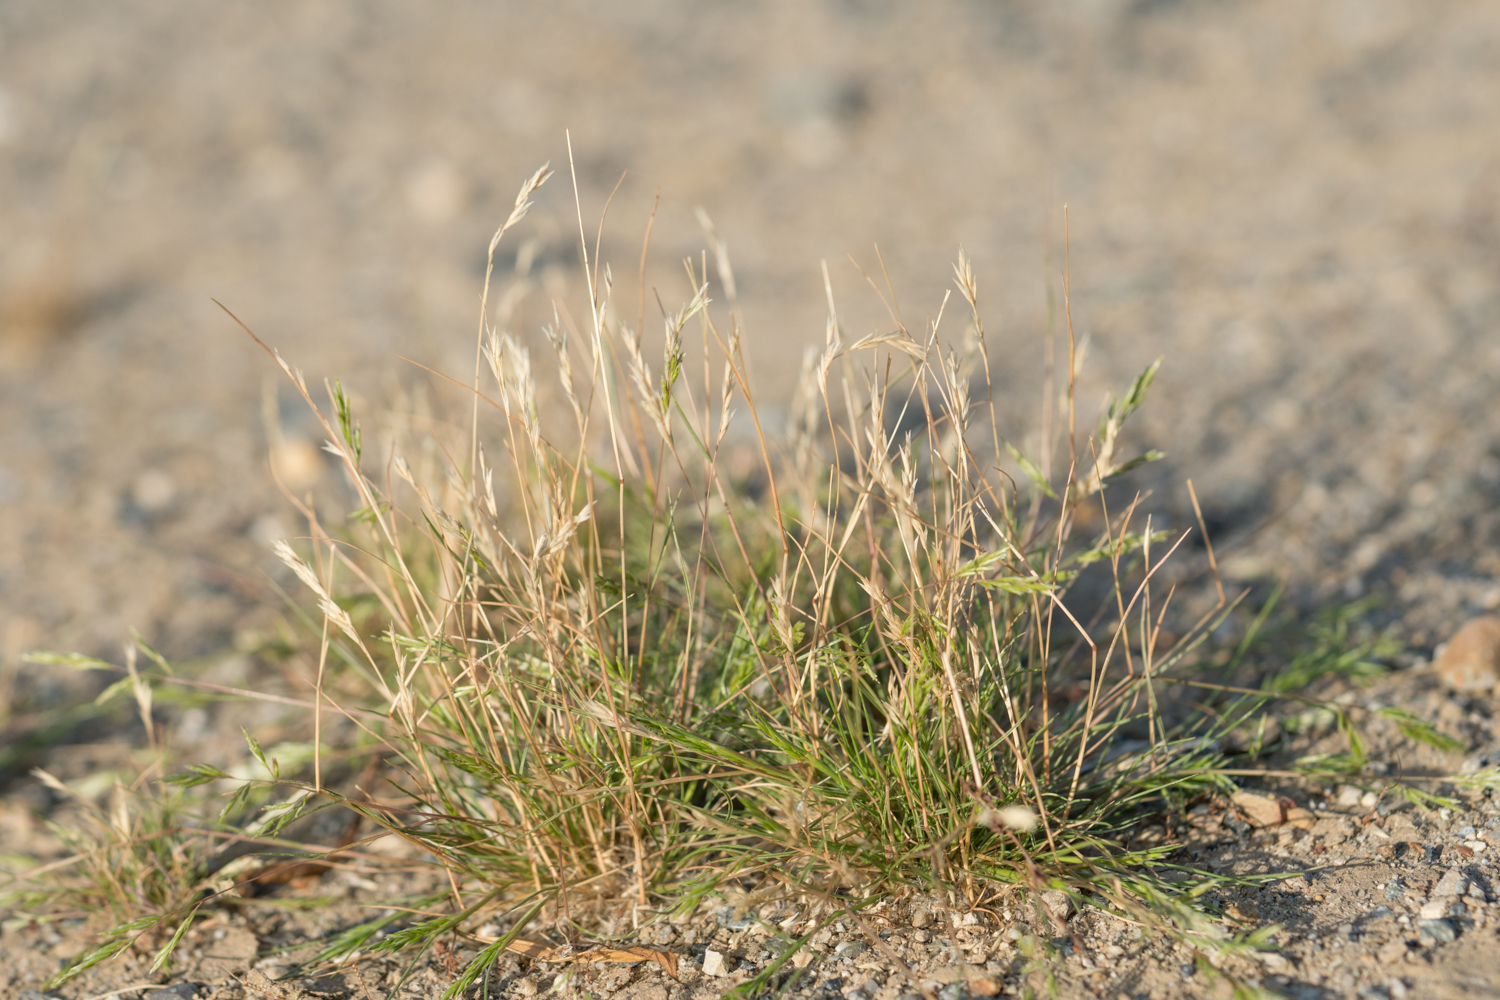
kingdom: Plantae
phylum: Tracheophyta
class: Liliopsida
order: Poales
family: Poaceae
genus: Schismus
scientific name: Schismus barbatus
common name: Kelch-grass
